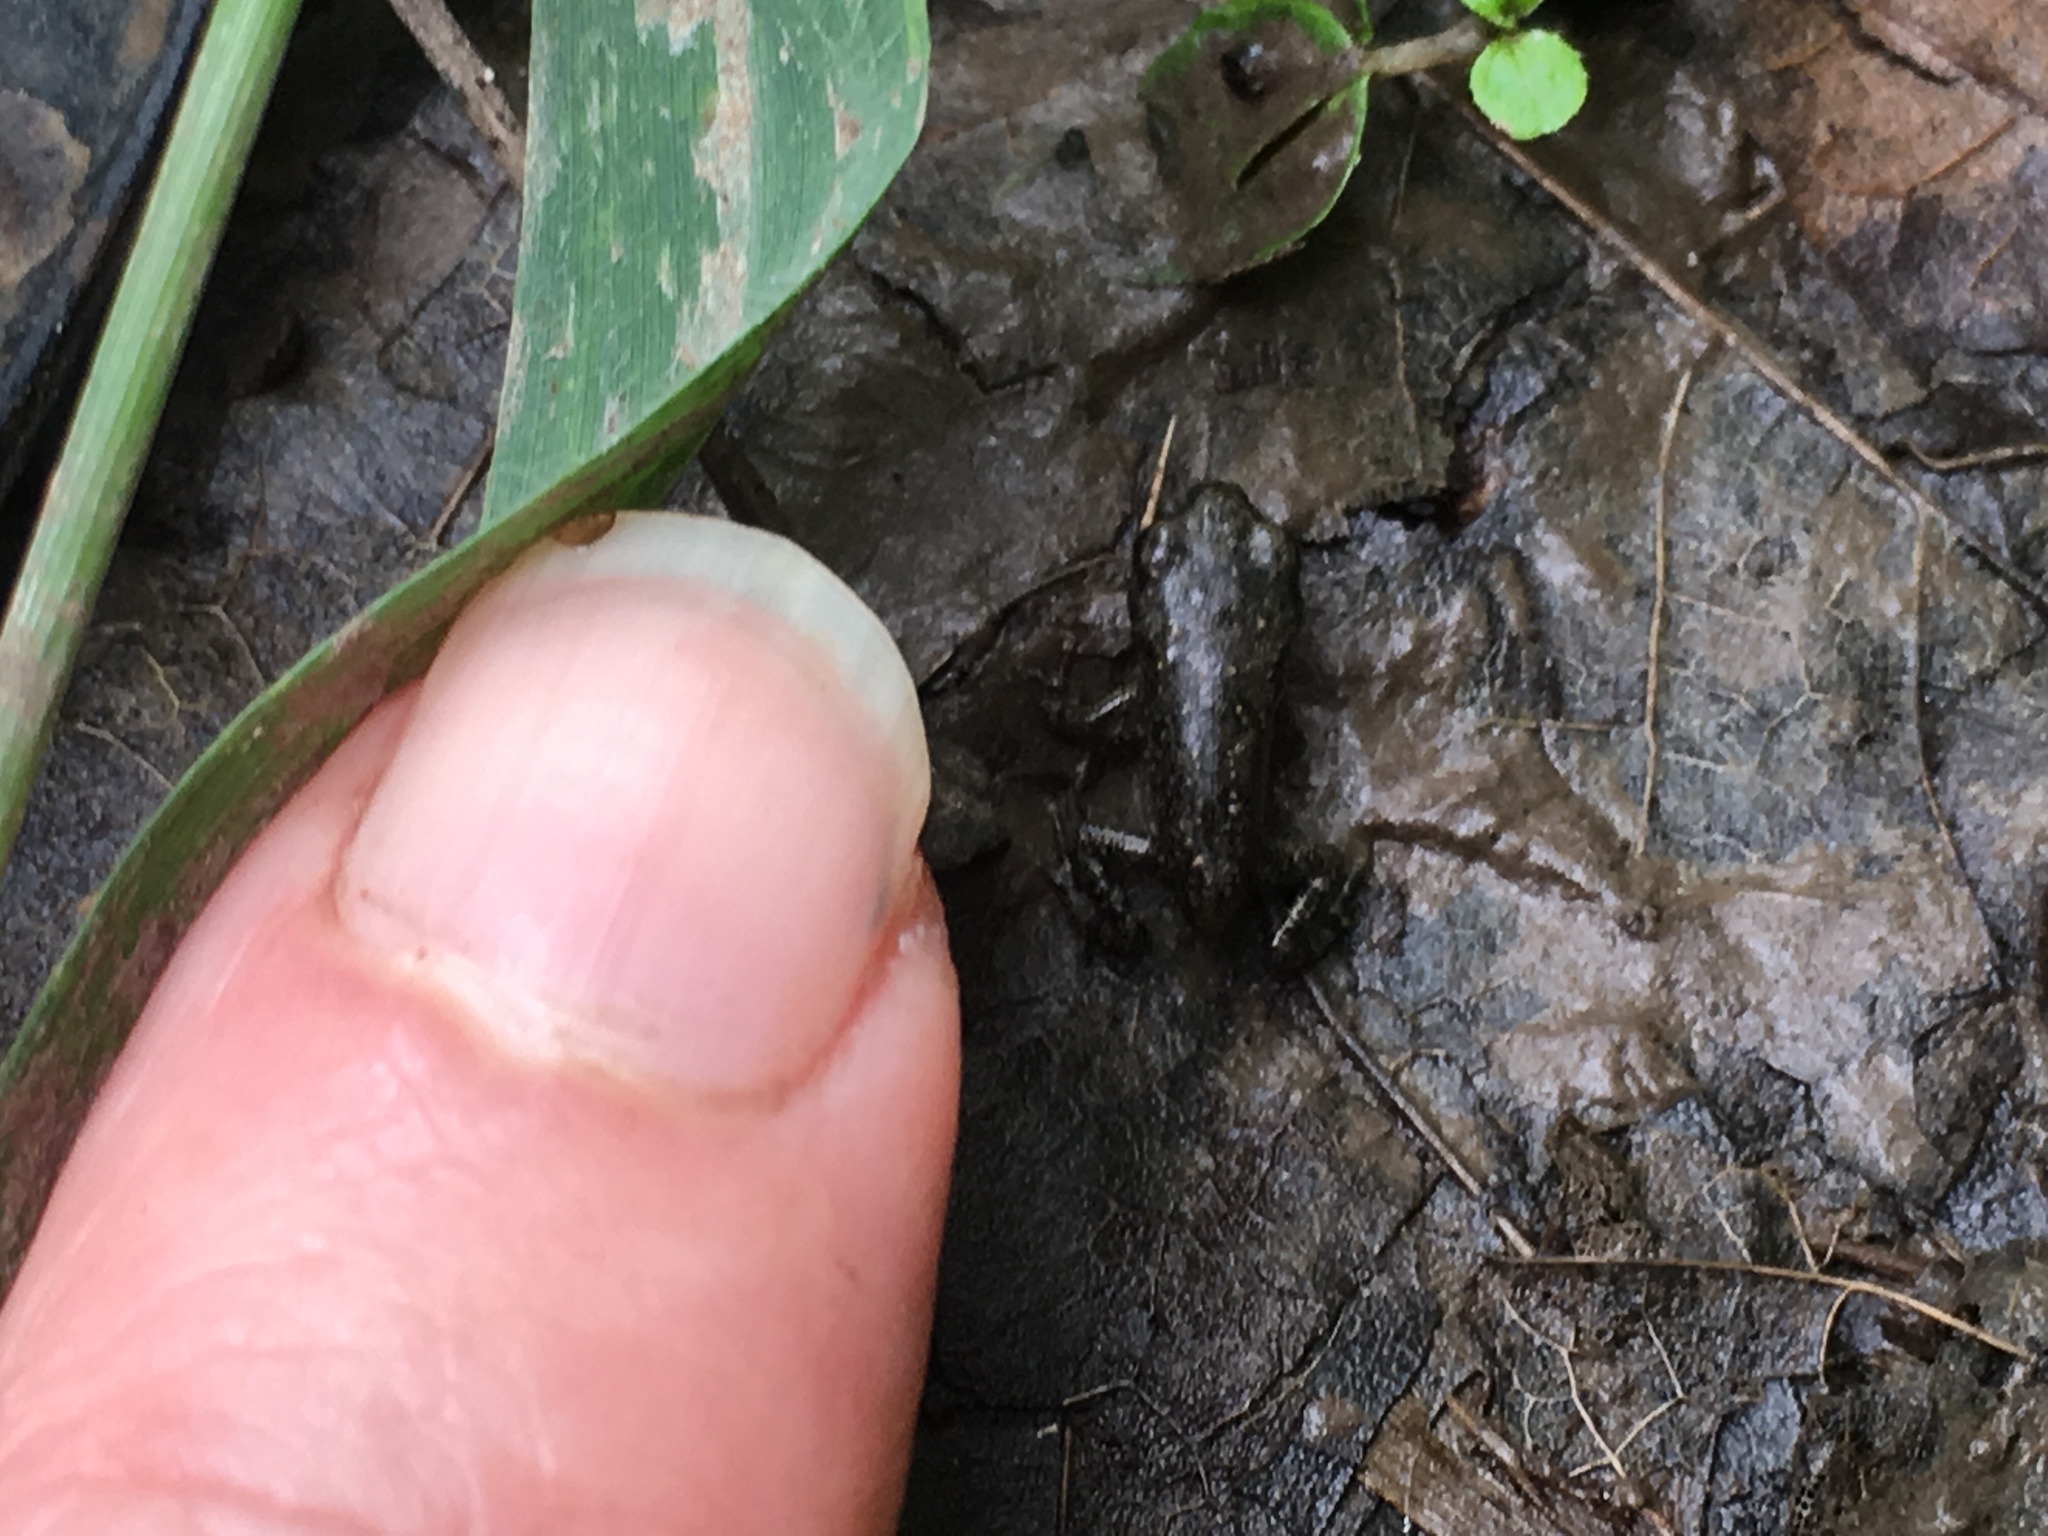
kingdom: Animalia
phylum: Chordata
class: Amphibia
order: Anura
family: Bufonidae
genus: Anaxyrus
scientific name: Anaxyrus americanus
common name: American toad
